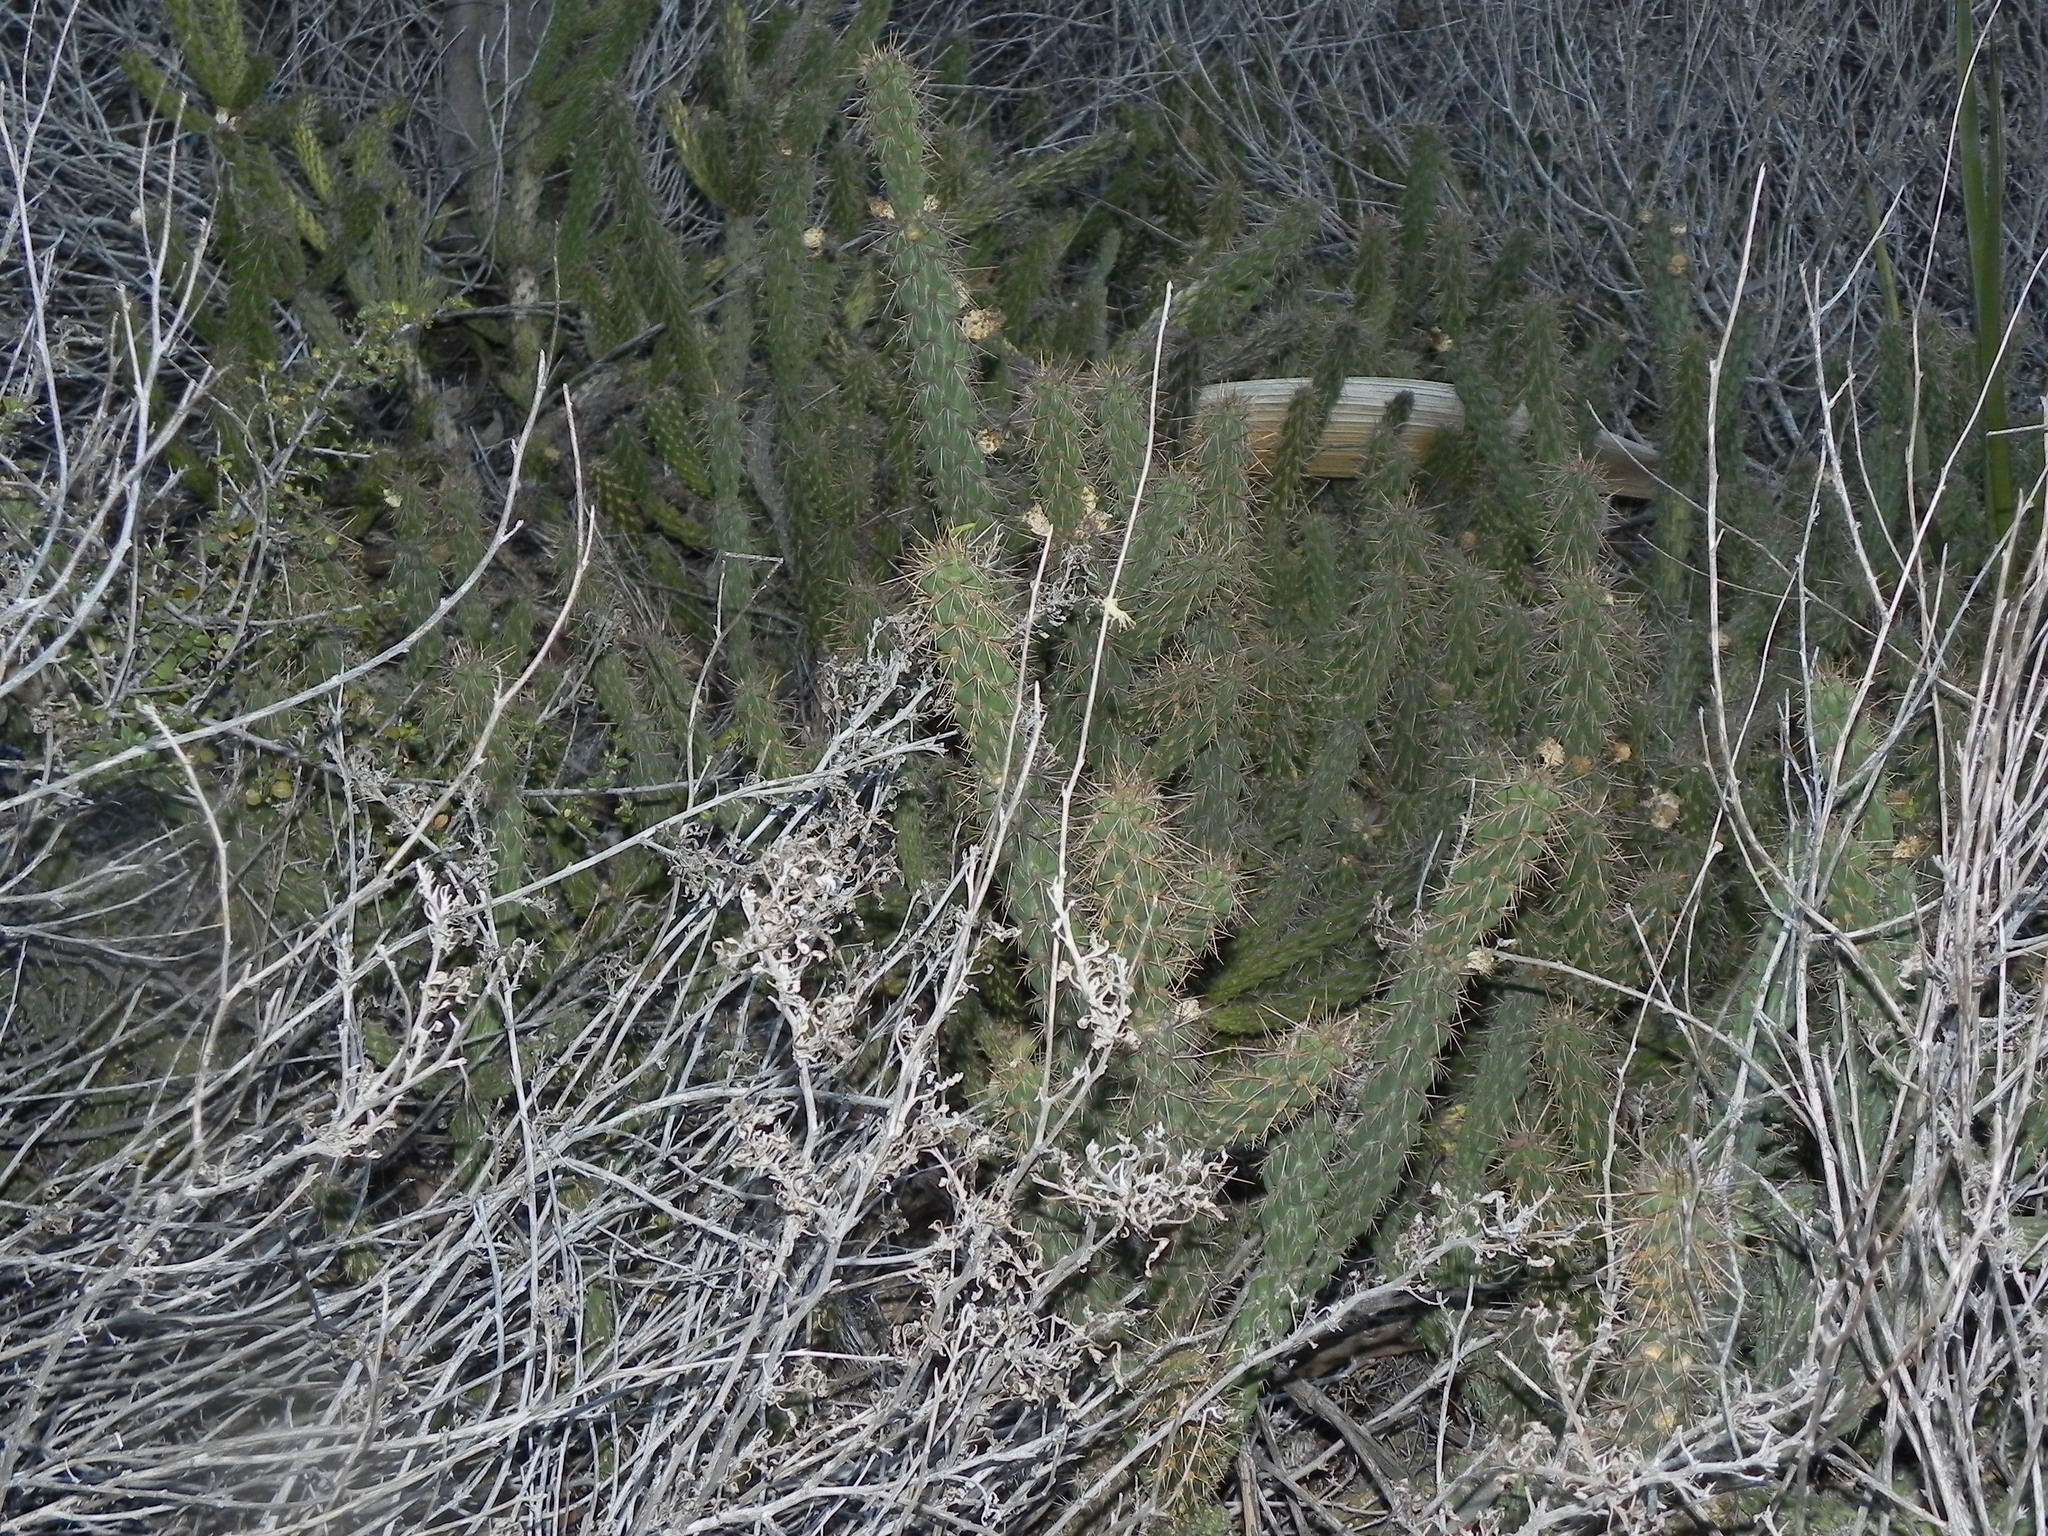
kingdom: Plantae
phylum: Tracheophyta
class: Magnoliopsida
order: Caryophyllales
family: Cactaceae
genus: Cylindropuntia
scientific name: Cylindropuntia californica
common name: Snake cholla
